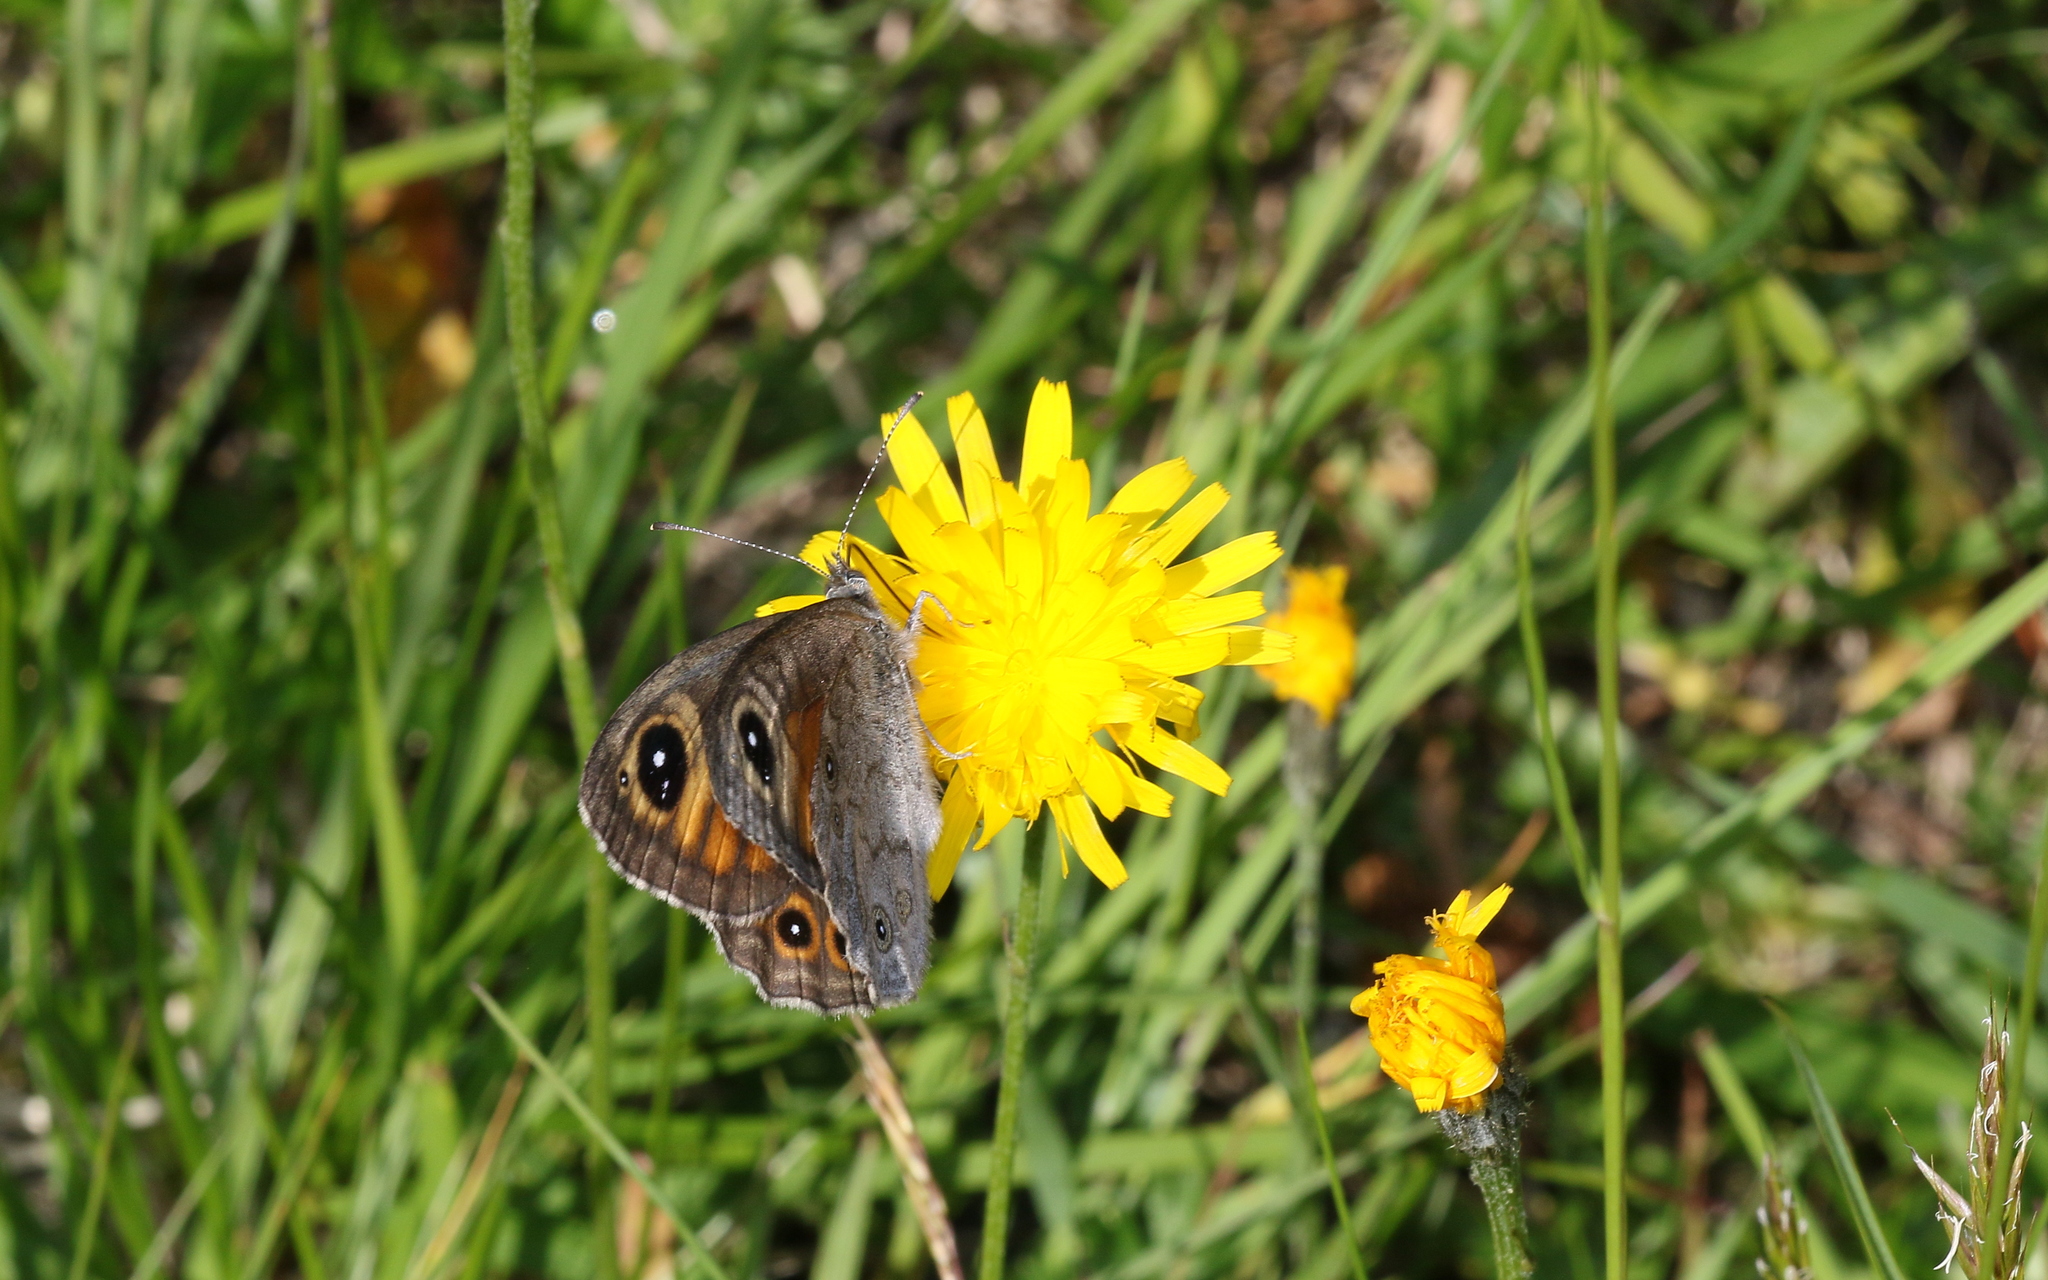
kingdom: Animalia
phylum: Arthropoda
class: Insecta
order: Lepidoptera
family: Nymphalidae
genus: Pararge
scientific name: Pararge Lasiommata maera
